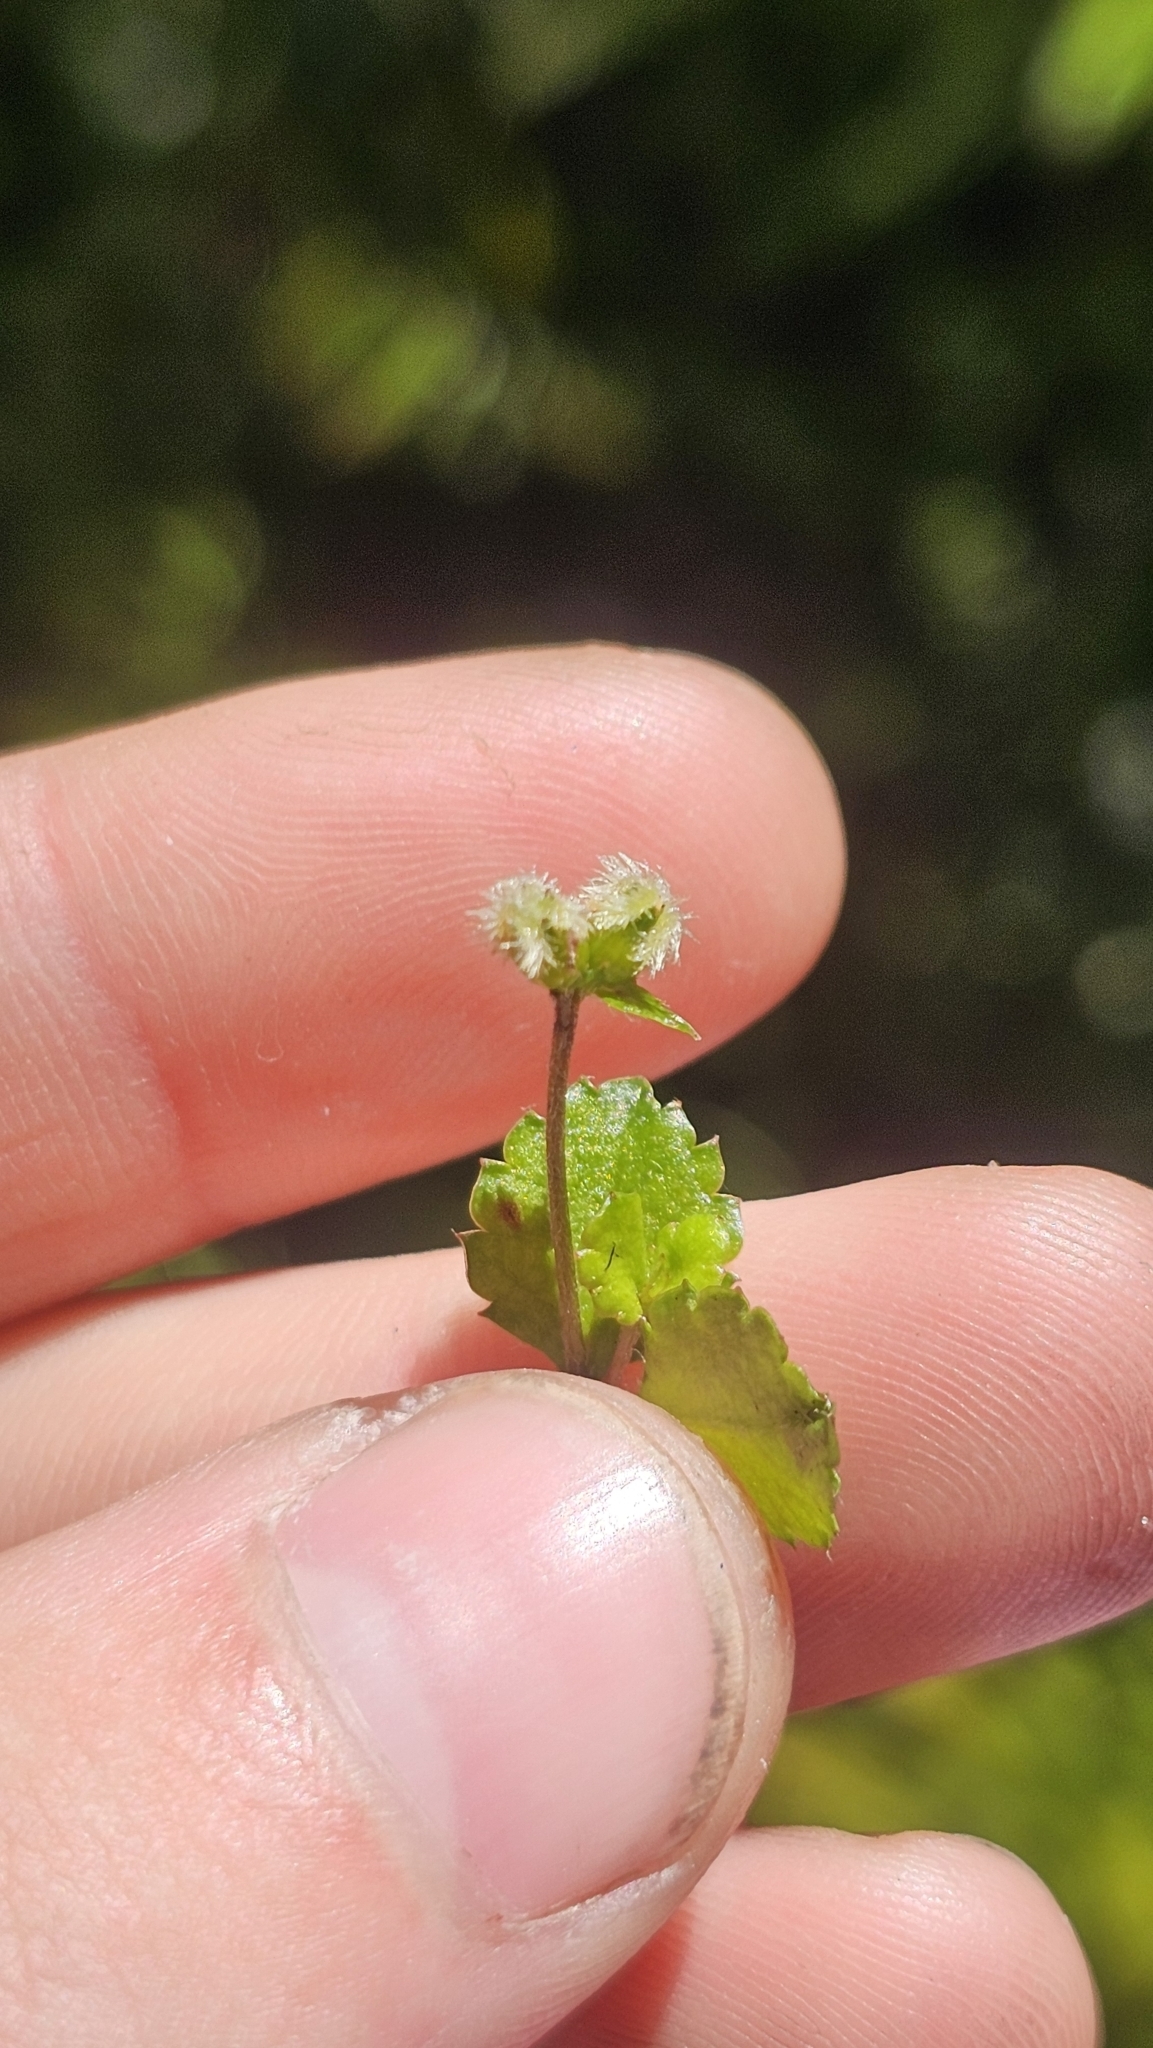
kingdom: Plantae
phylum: Tracheophyta
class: Magnoliopsida
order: Saxifragales
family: Haloragaceae
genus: Gonocarpus
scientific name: Gonocarpus aggregatus
